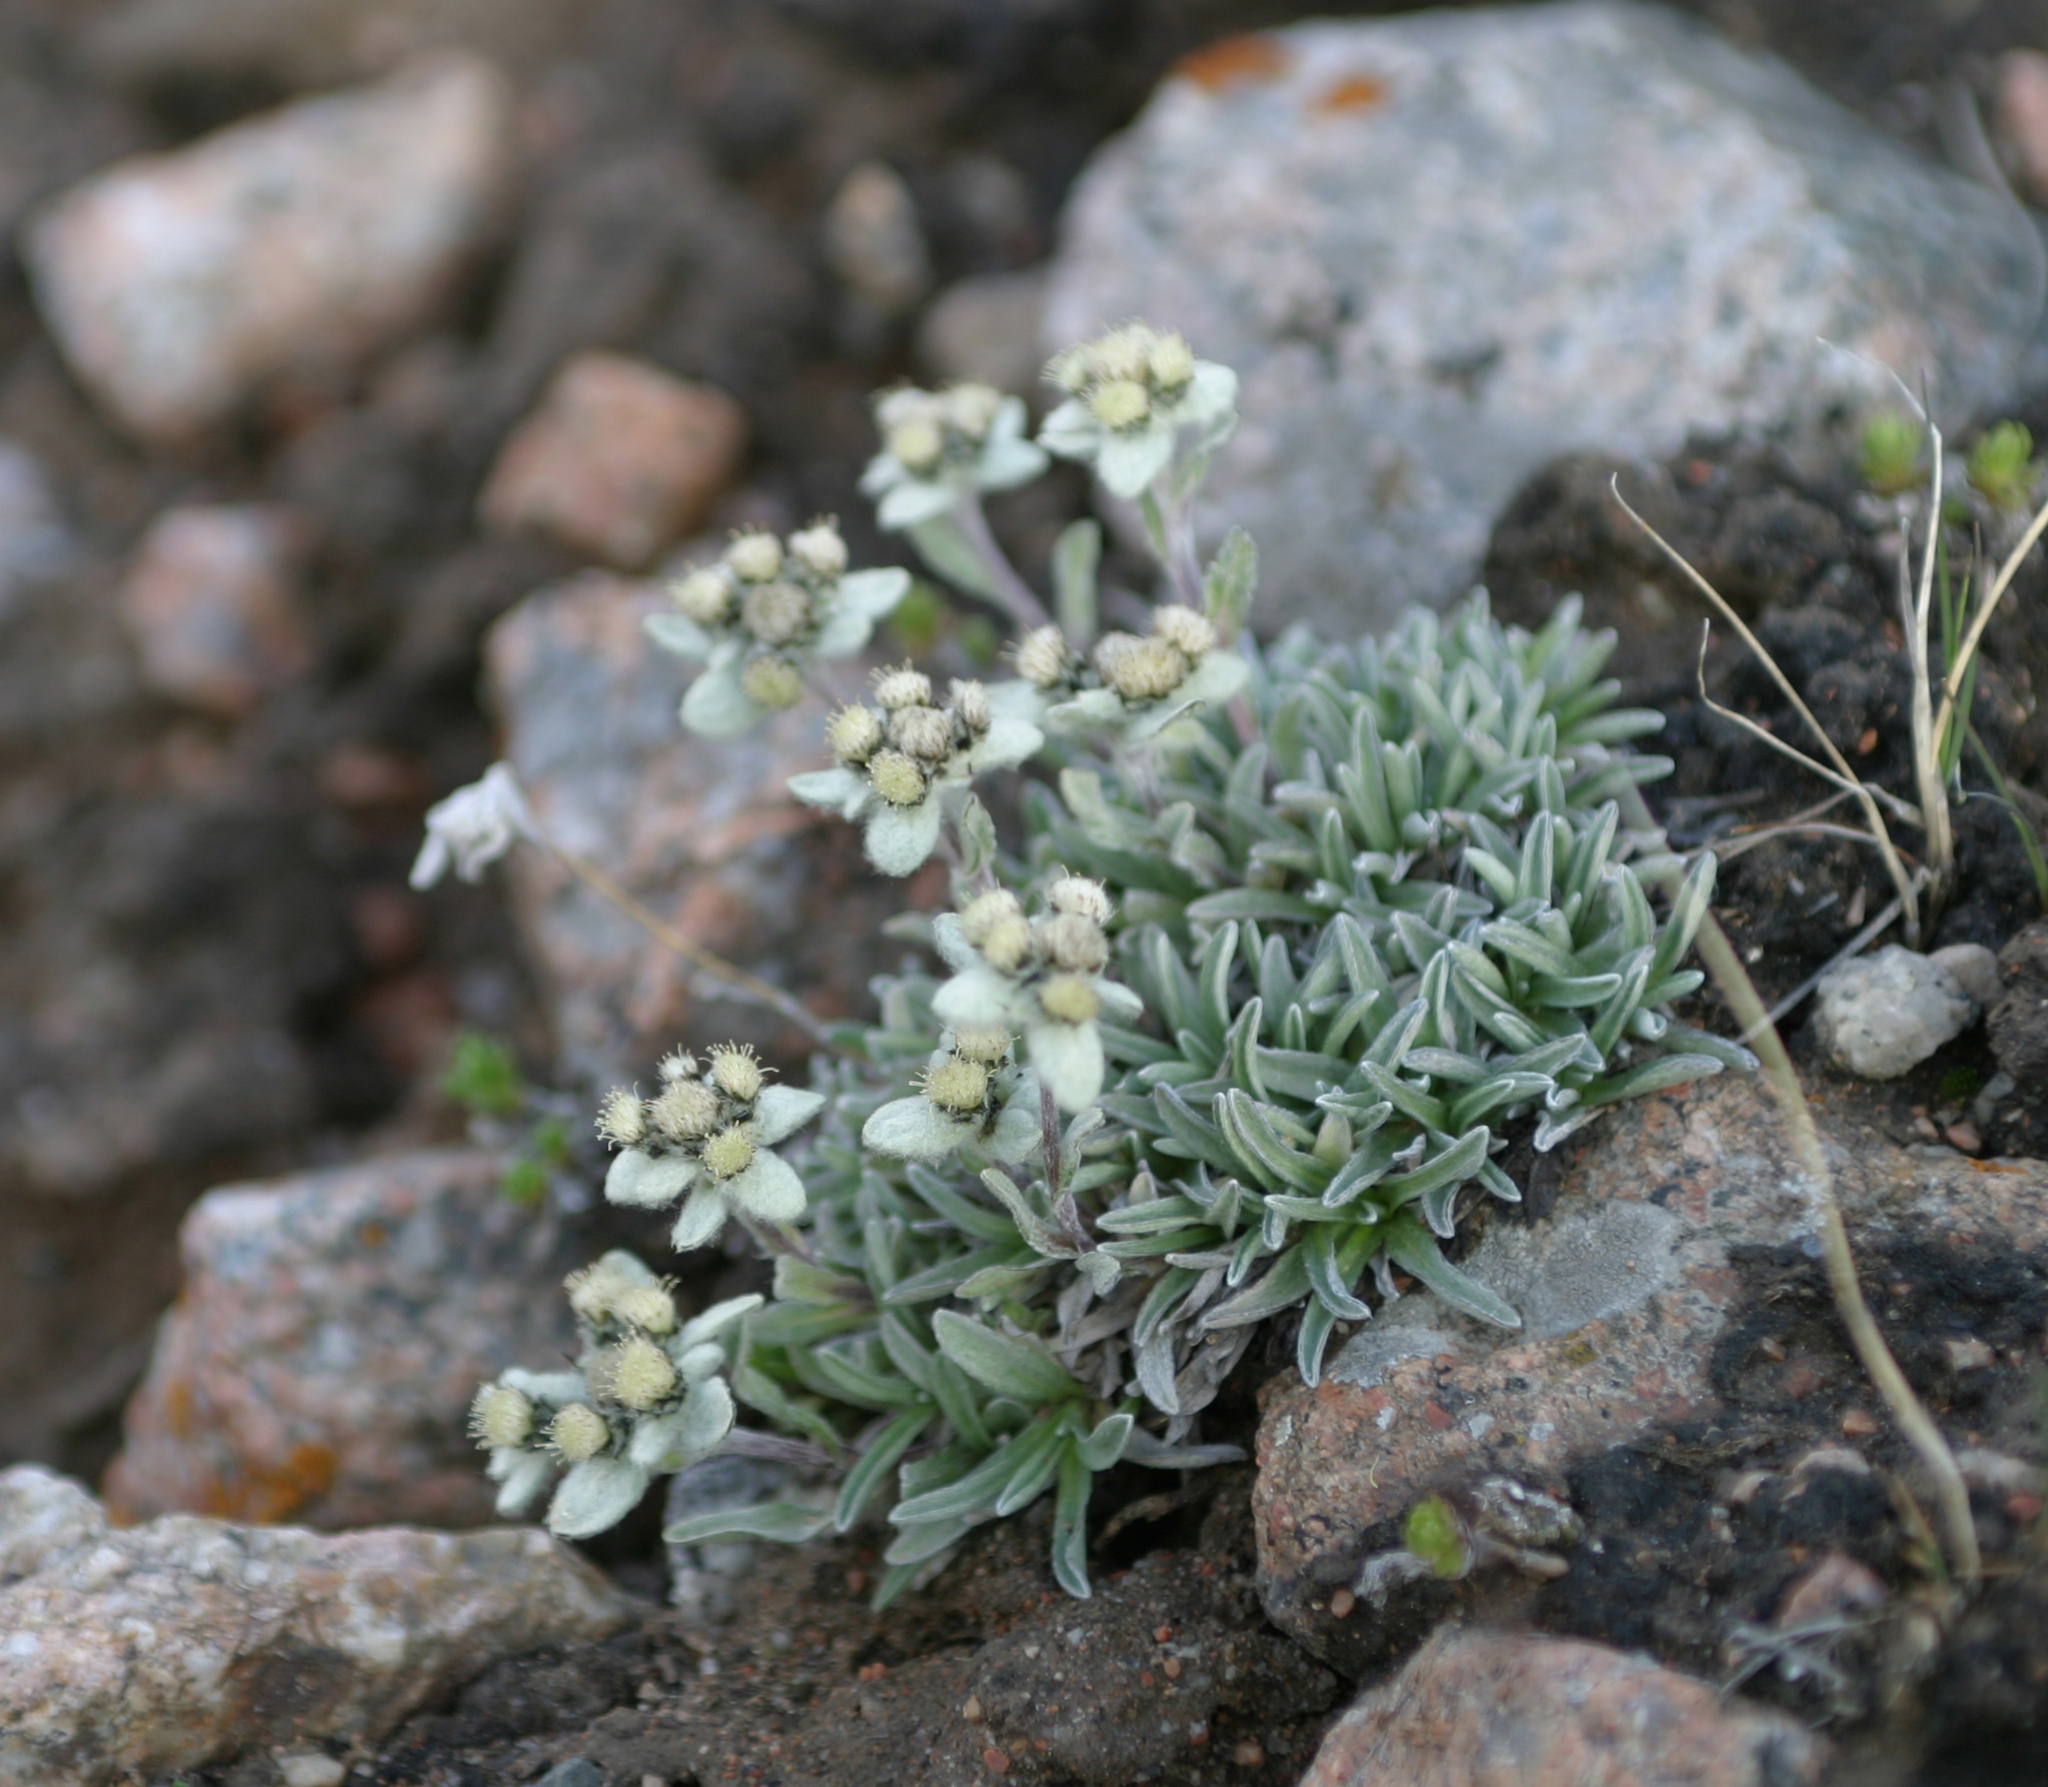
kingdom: Plantae
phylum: Tracheophyta
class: Magnoliopsida
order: Asterales
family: Asteraceae
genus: Leontopodium
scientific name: Leontopodium leontopodinum
